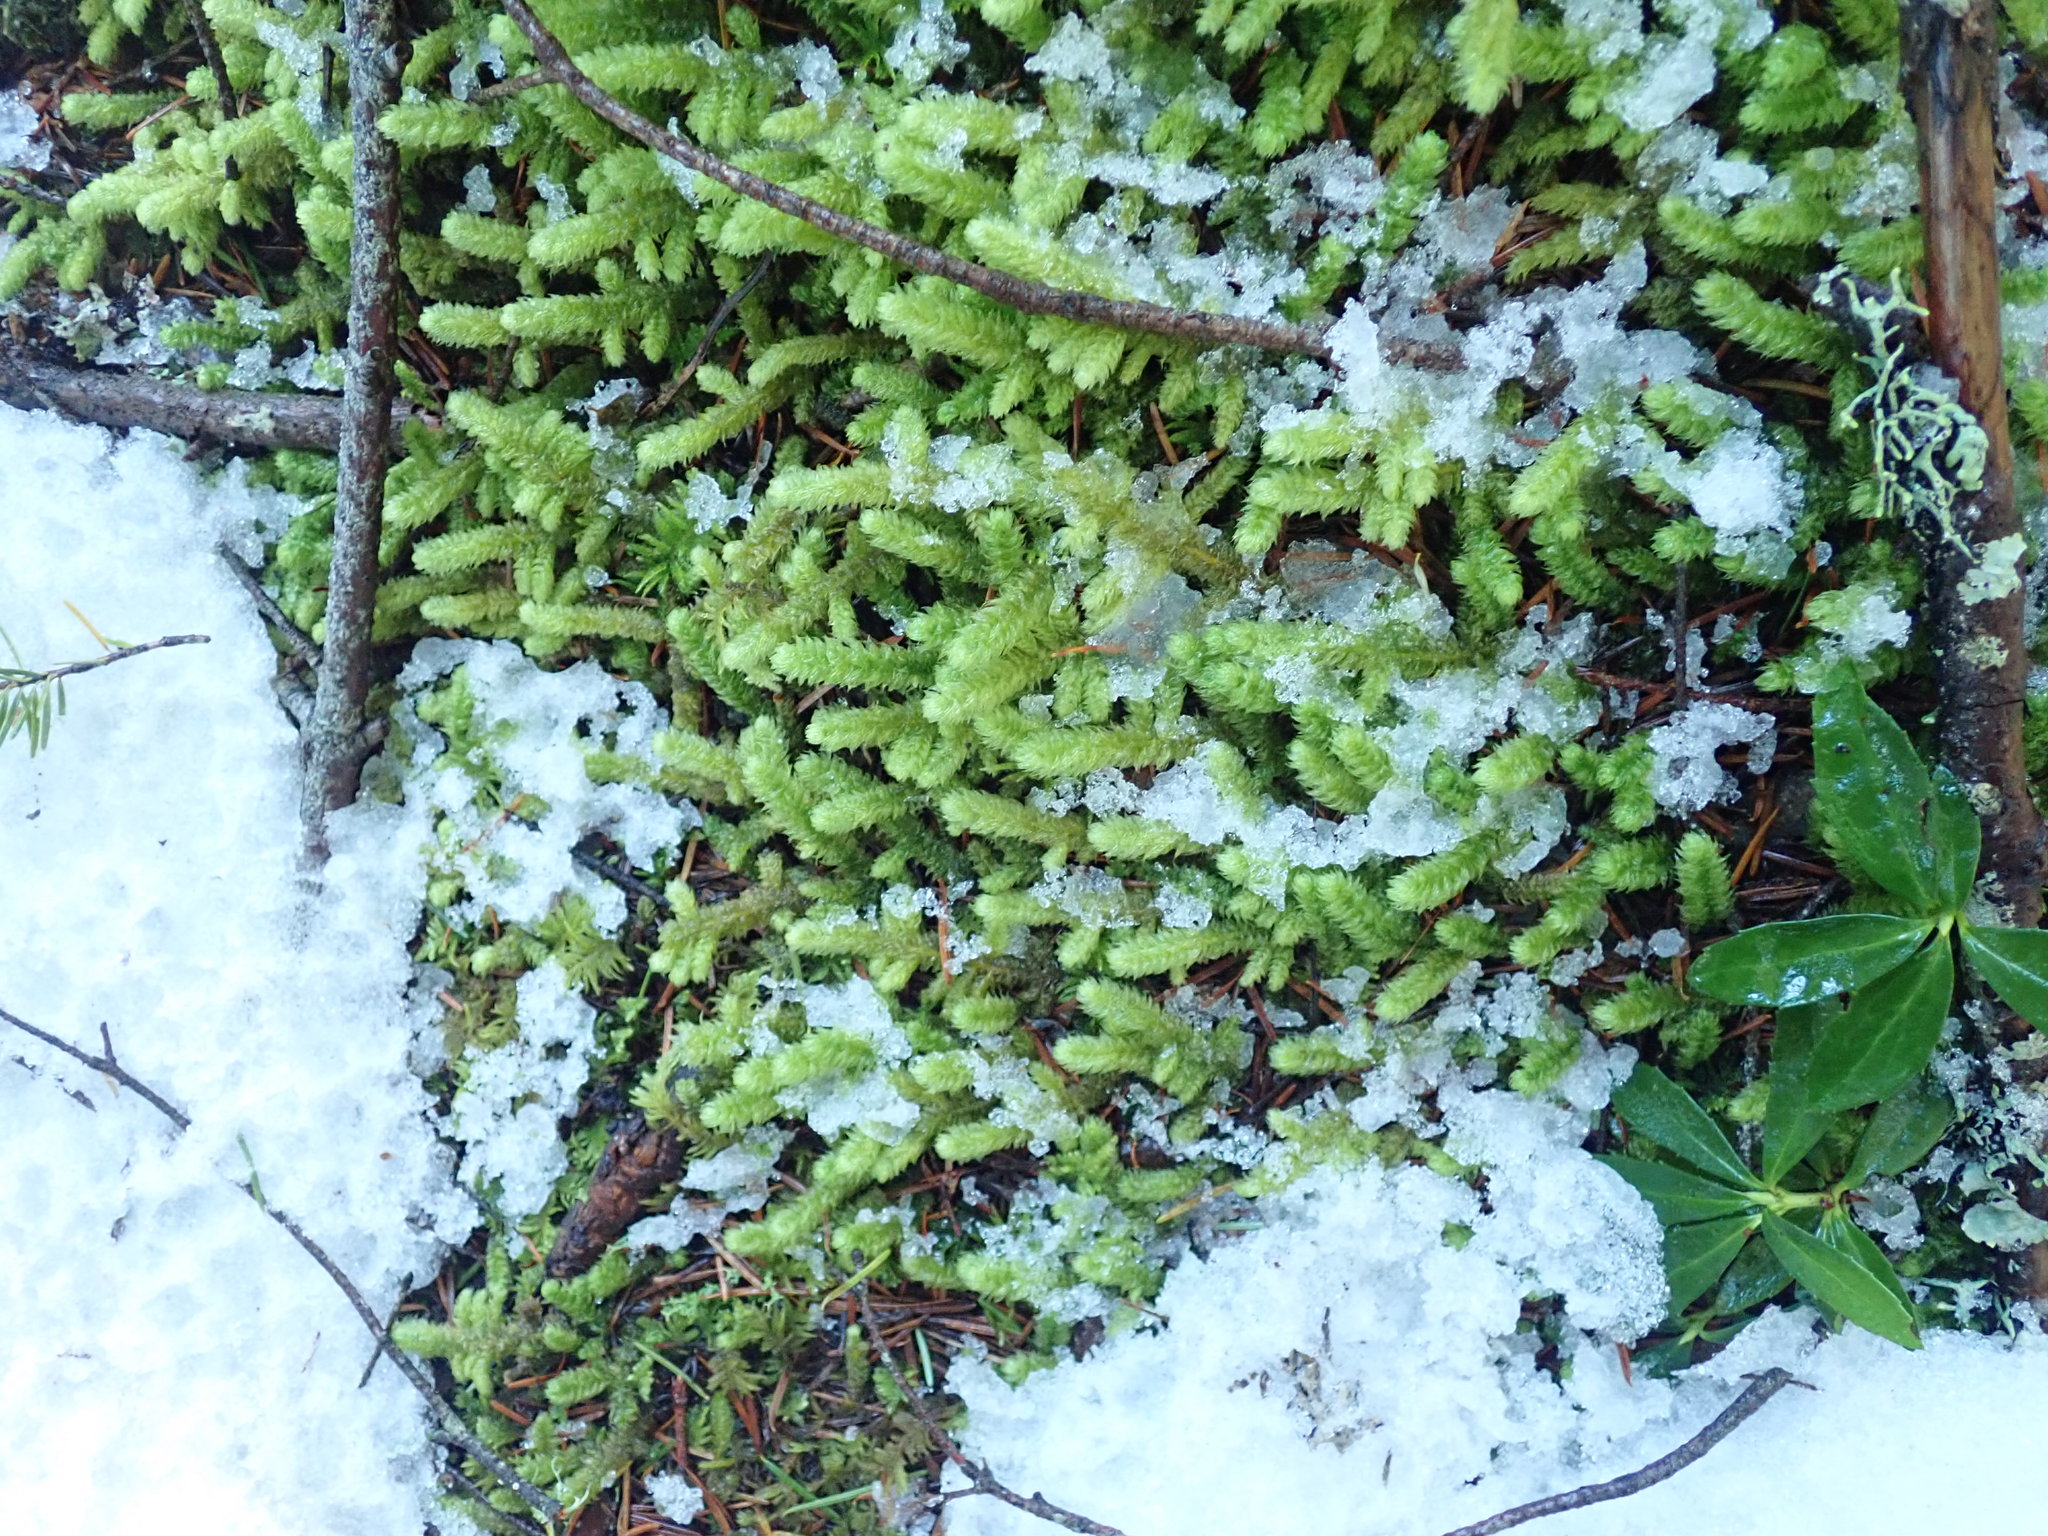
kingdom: Plantae
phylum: Bryophyta
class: Bryopsida
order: Hypnales
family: Hylocomiaceae
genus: Rhytidiopsis
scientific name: Rhytidiopsis robusta
